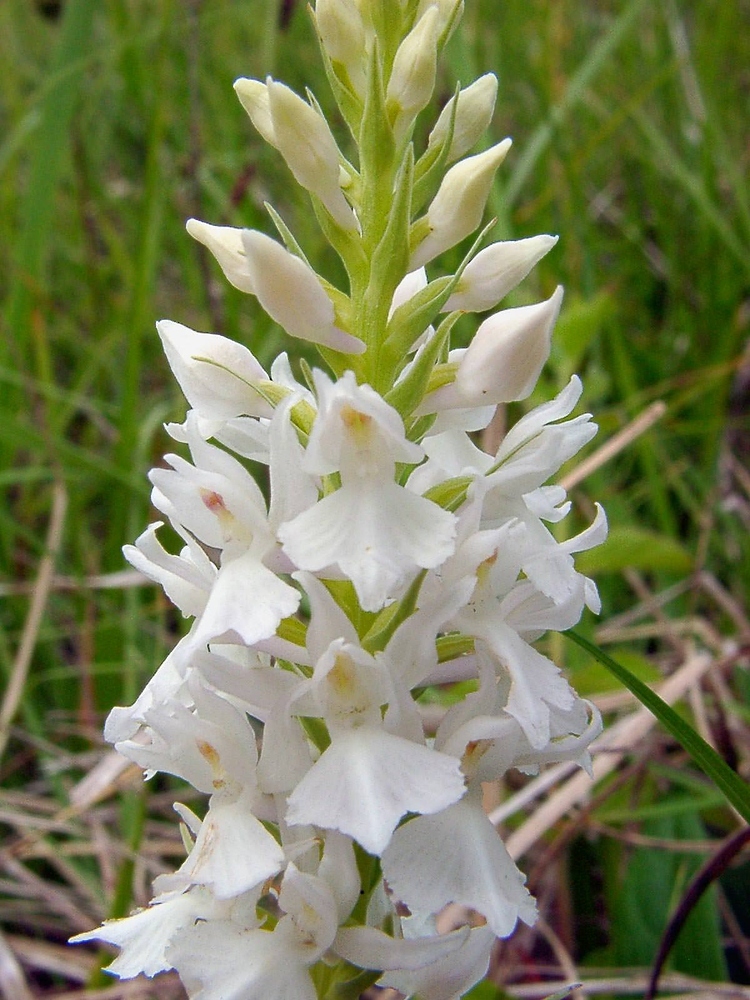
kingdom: Plantae
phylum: Tracheophyta
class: Liliopsida
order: Asparagales
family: Orchidaceae
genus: Dactylorhiza
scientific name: Dactylorhiza maculata
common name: Heath spotted-orchid
